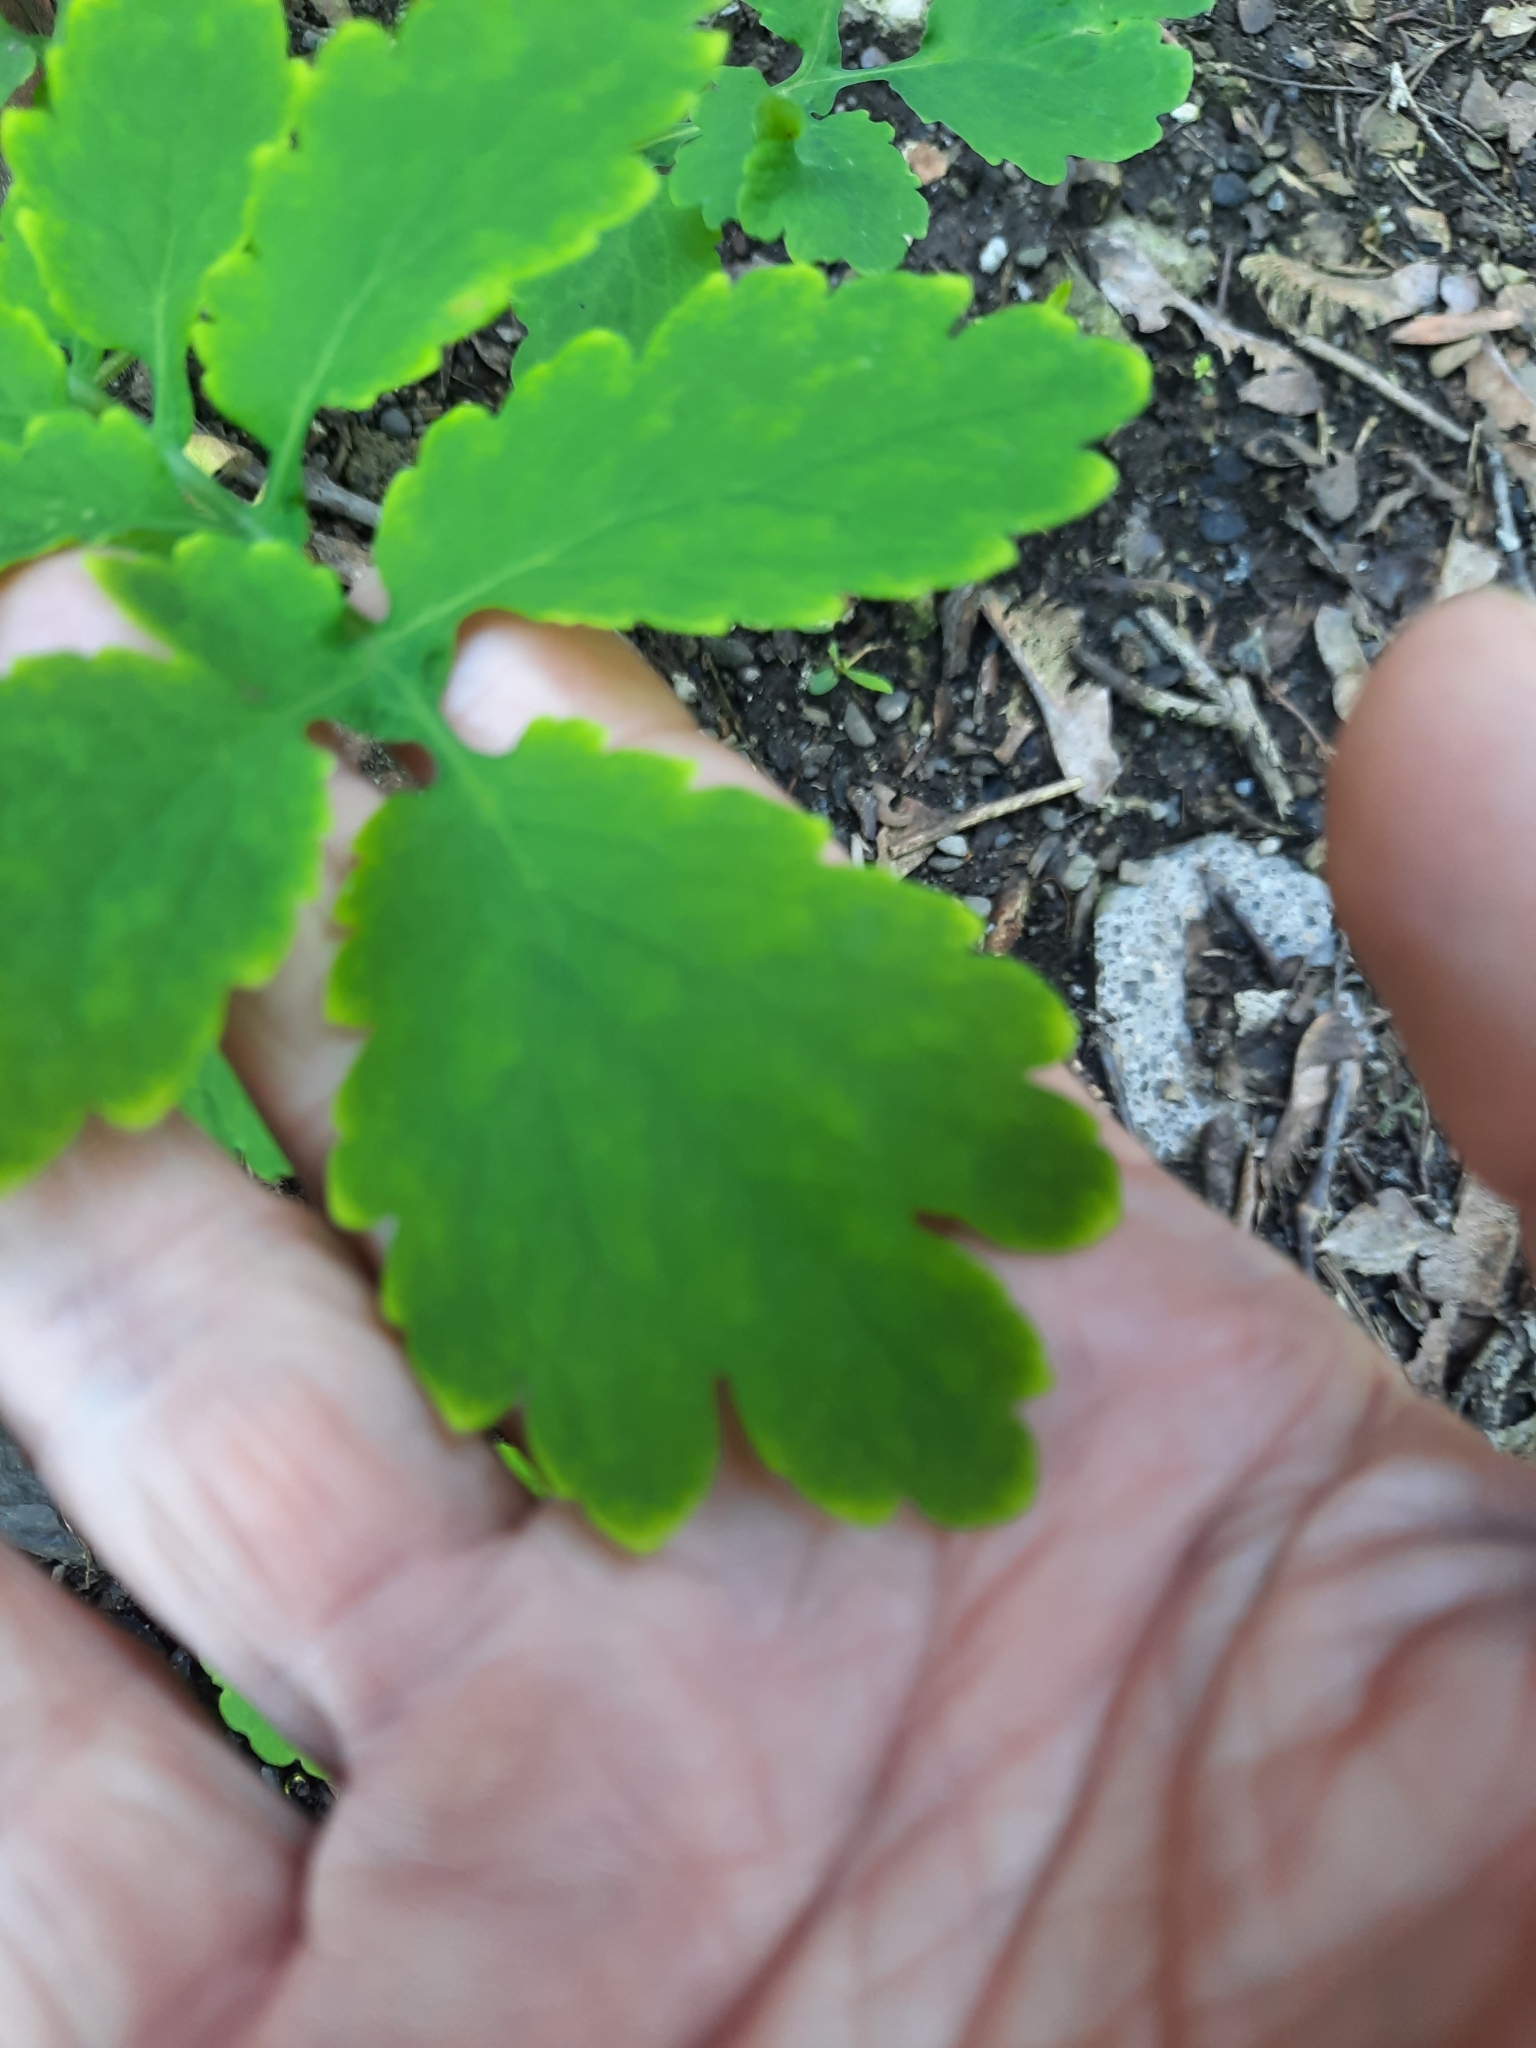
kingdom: Plantae
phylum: Tracheophyta
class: Magnoliopsida
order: Ranunculales
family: Papaveraceae
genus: Chelidonium
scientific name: Chelidonium majus
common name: Greater celandine
